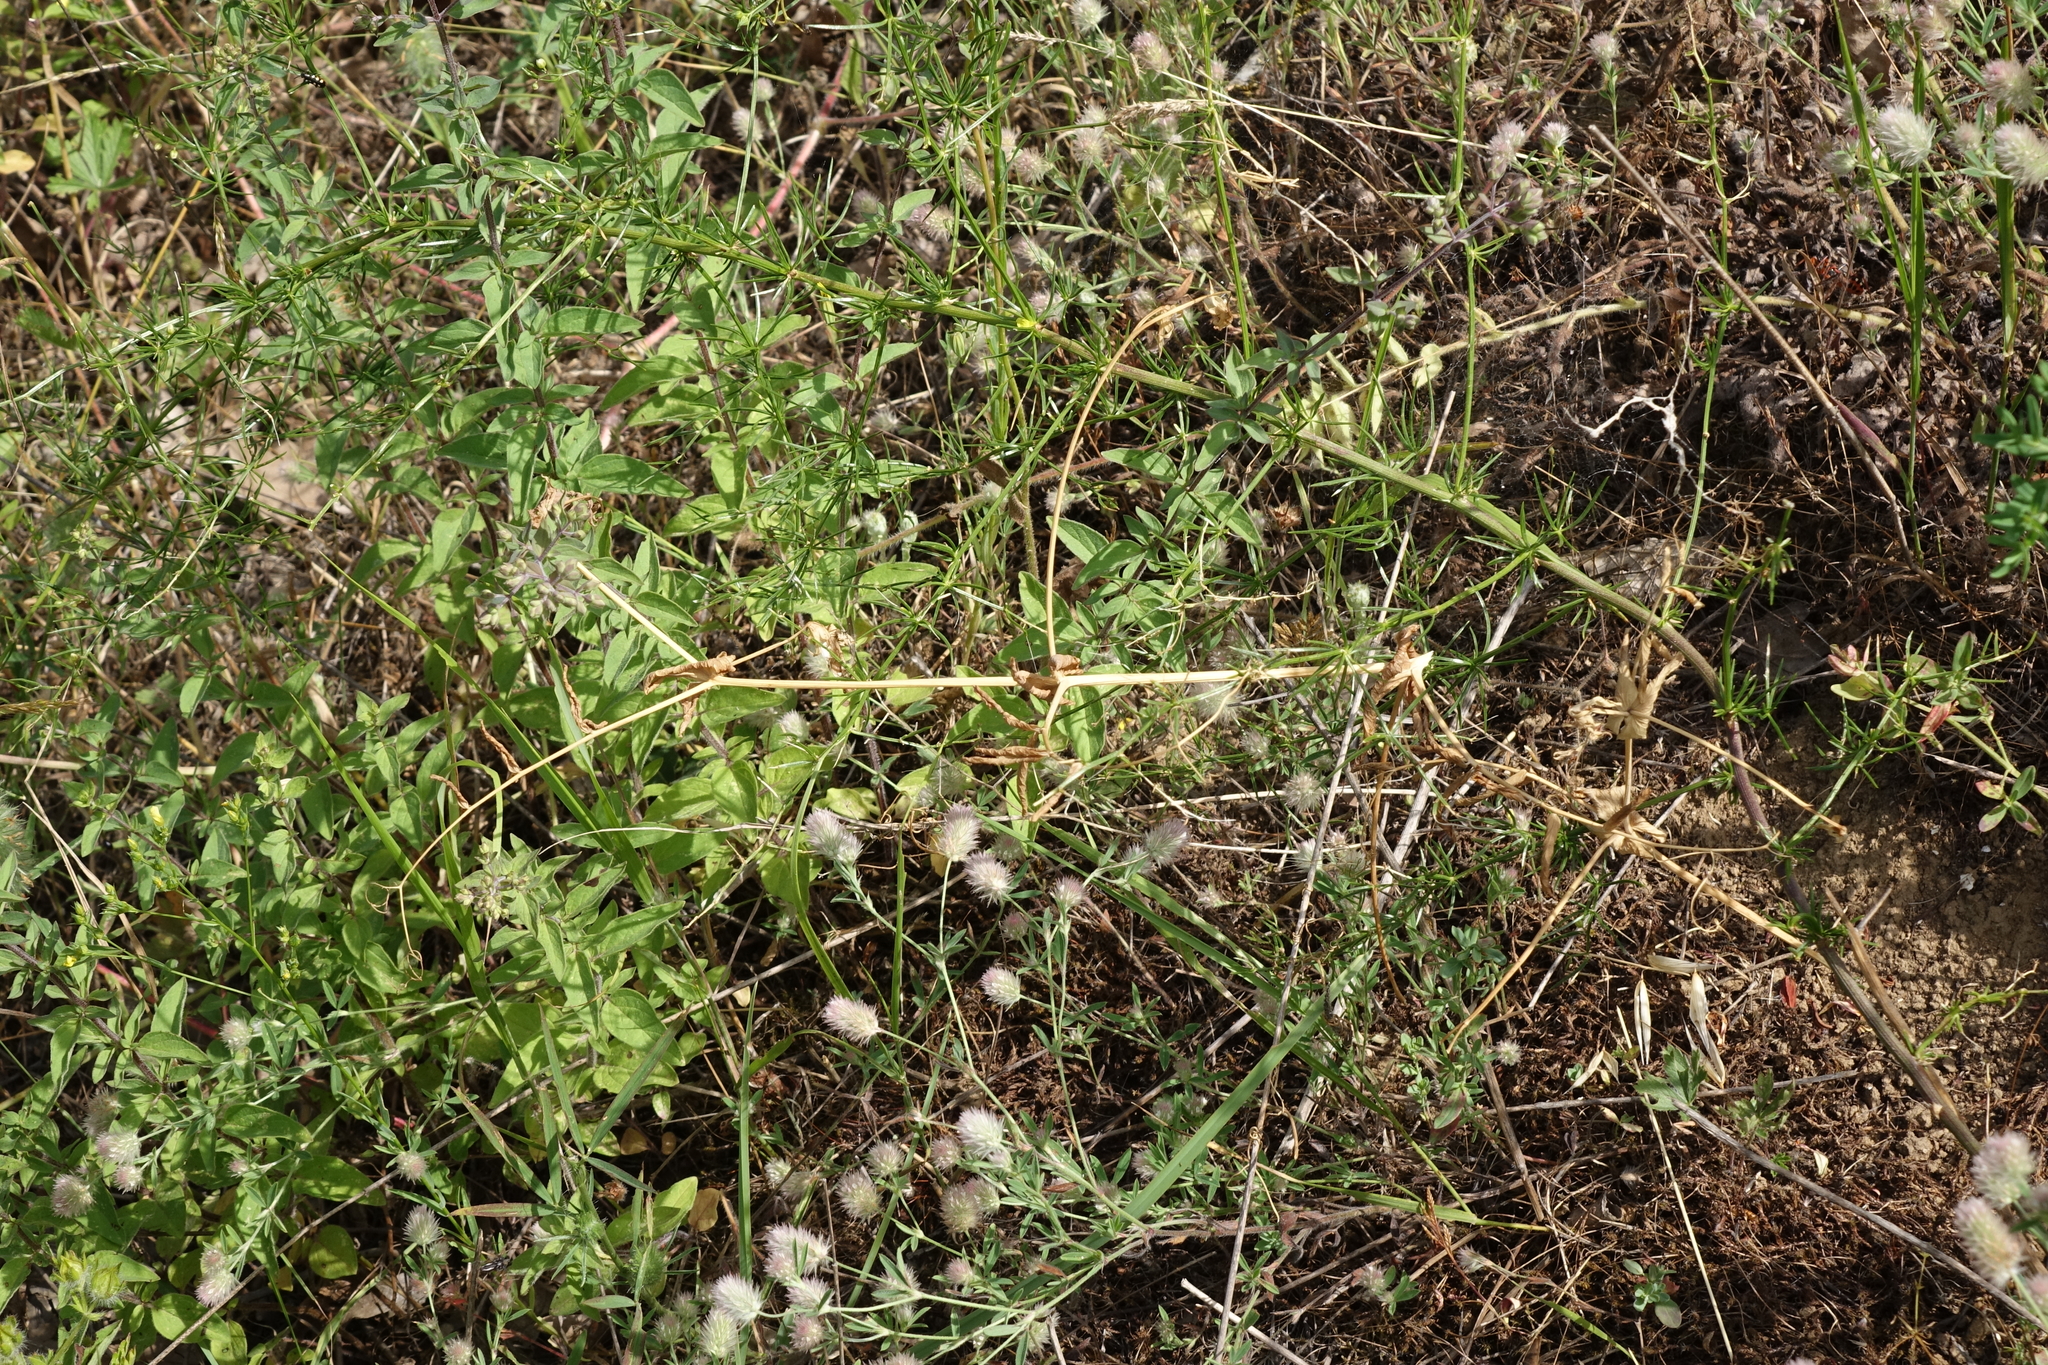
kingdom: Plantae
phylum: Tracheophyta
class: Magnoliopsida
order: Fabales
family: Fabaceae
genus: Lathyrus
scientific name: Lathyrus oleraceus
